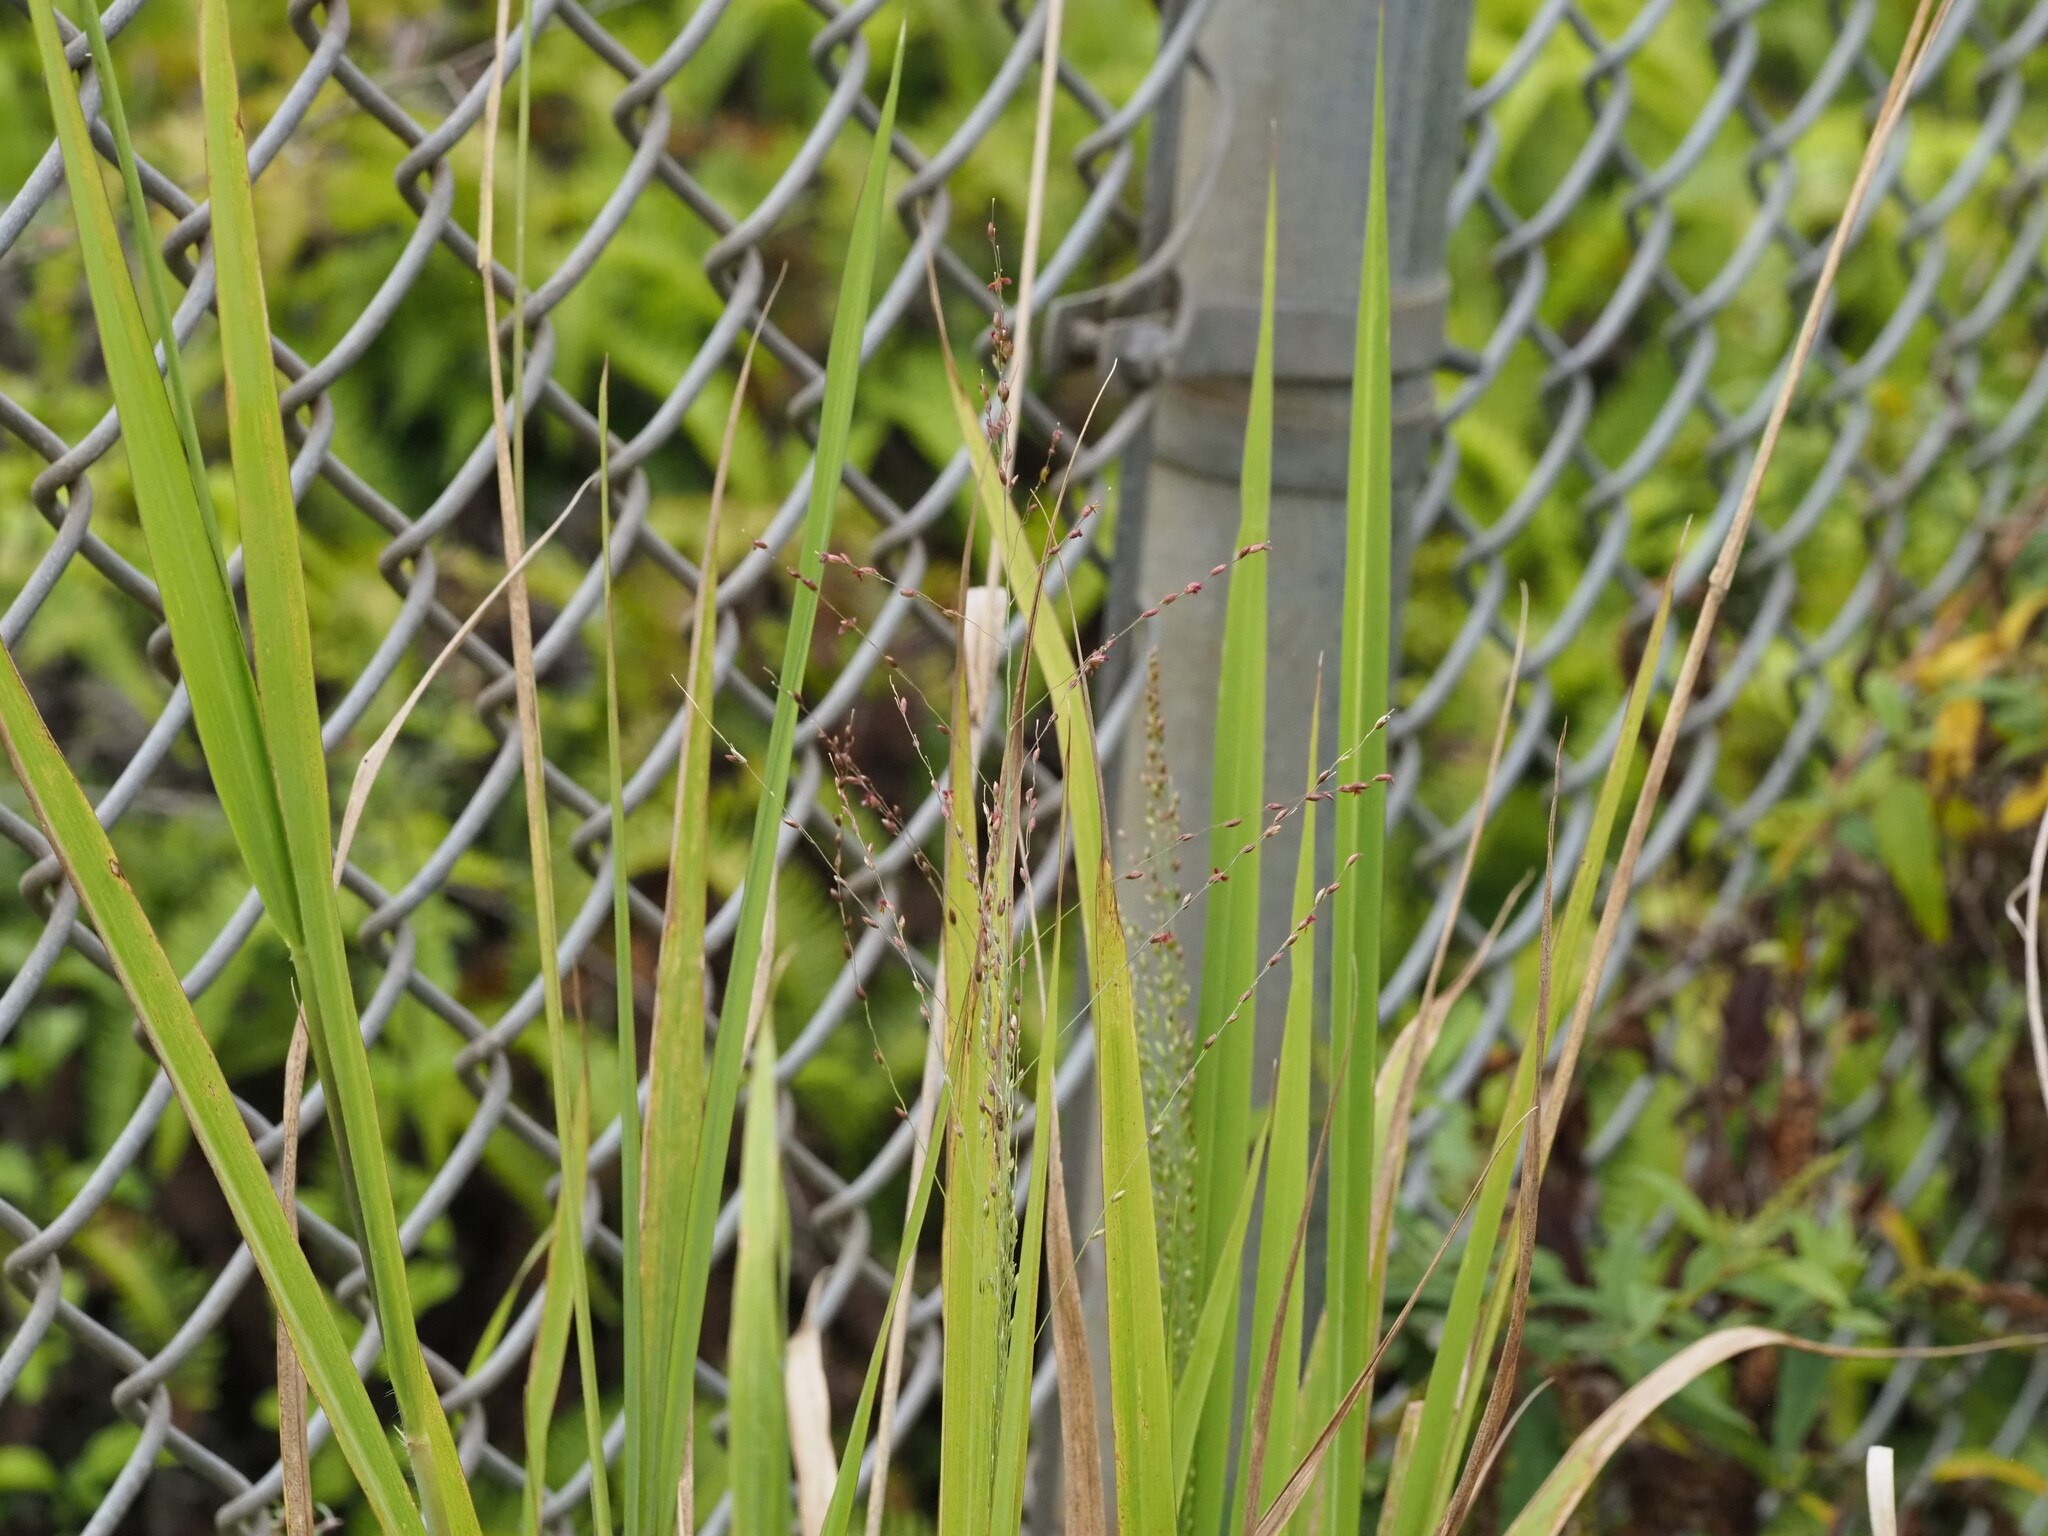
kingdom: Plantae
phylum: Tracheophyta
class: Liliopsida
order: Poales
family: Poaceae
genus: Megathyrsus
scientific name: Megathyrsus maximus
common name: Guineagrass
